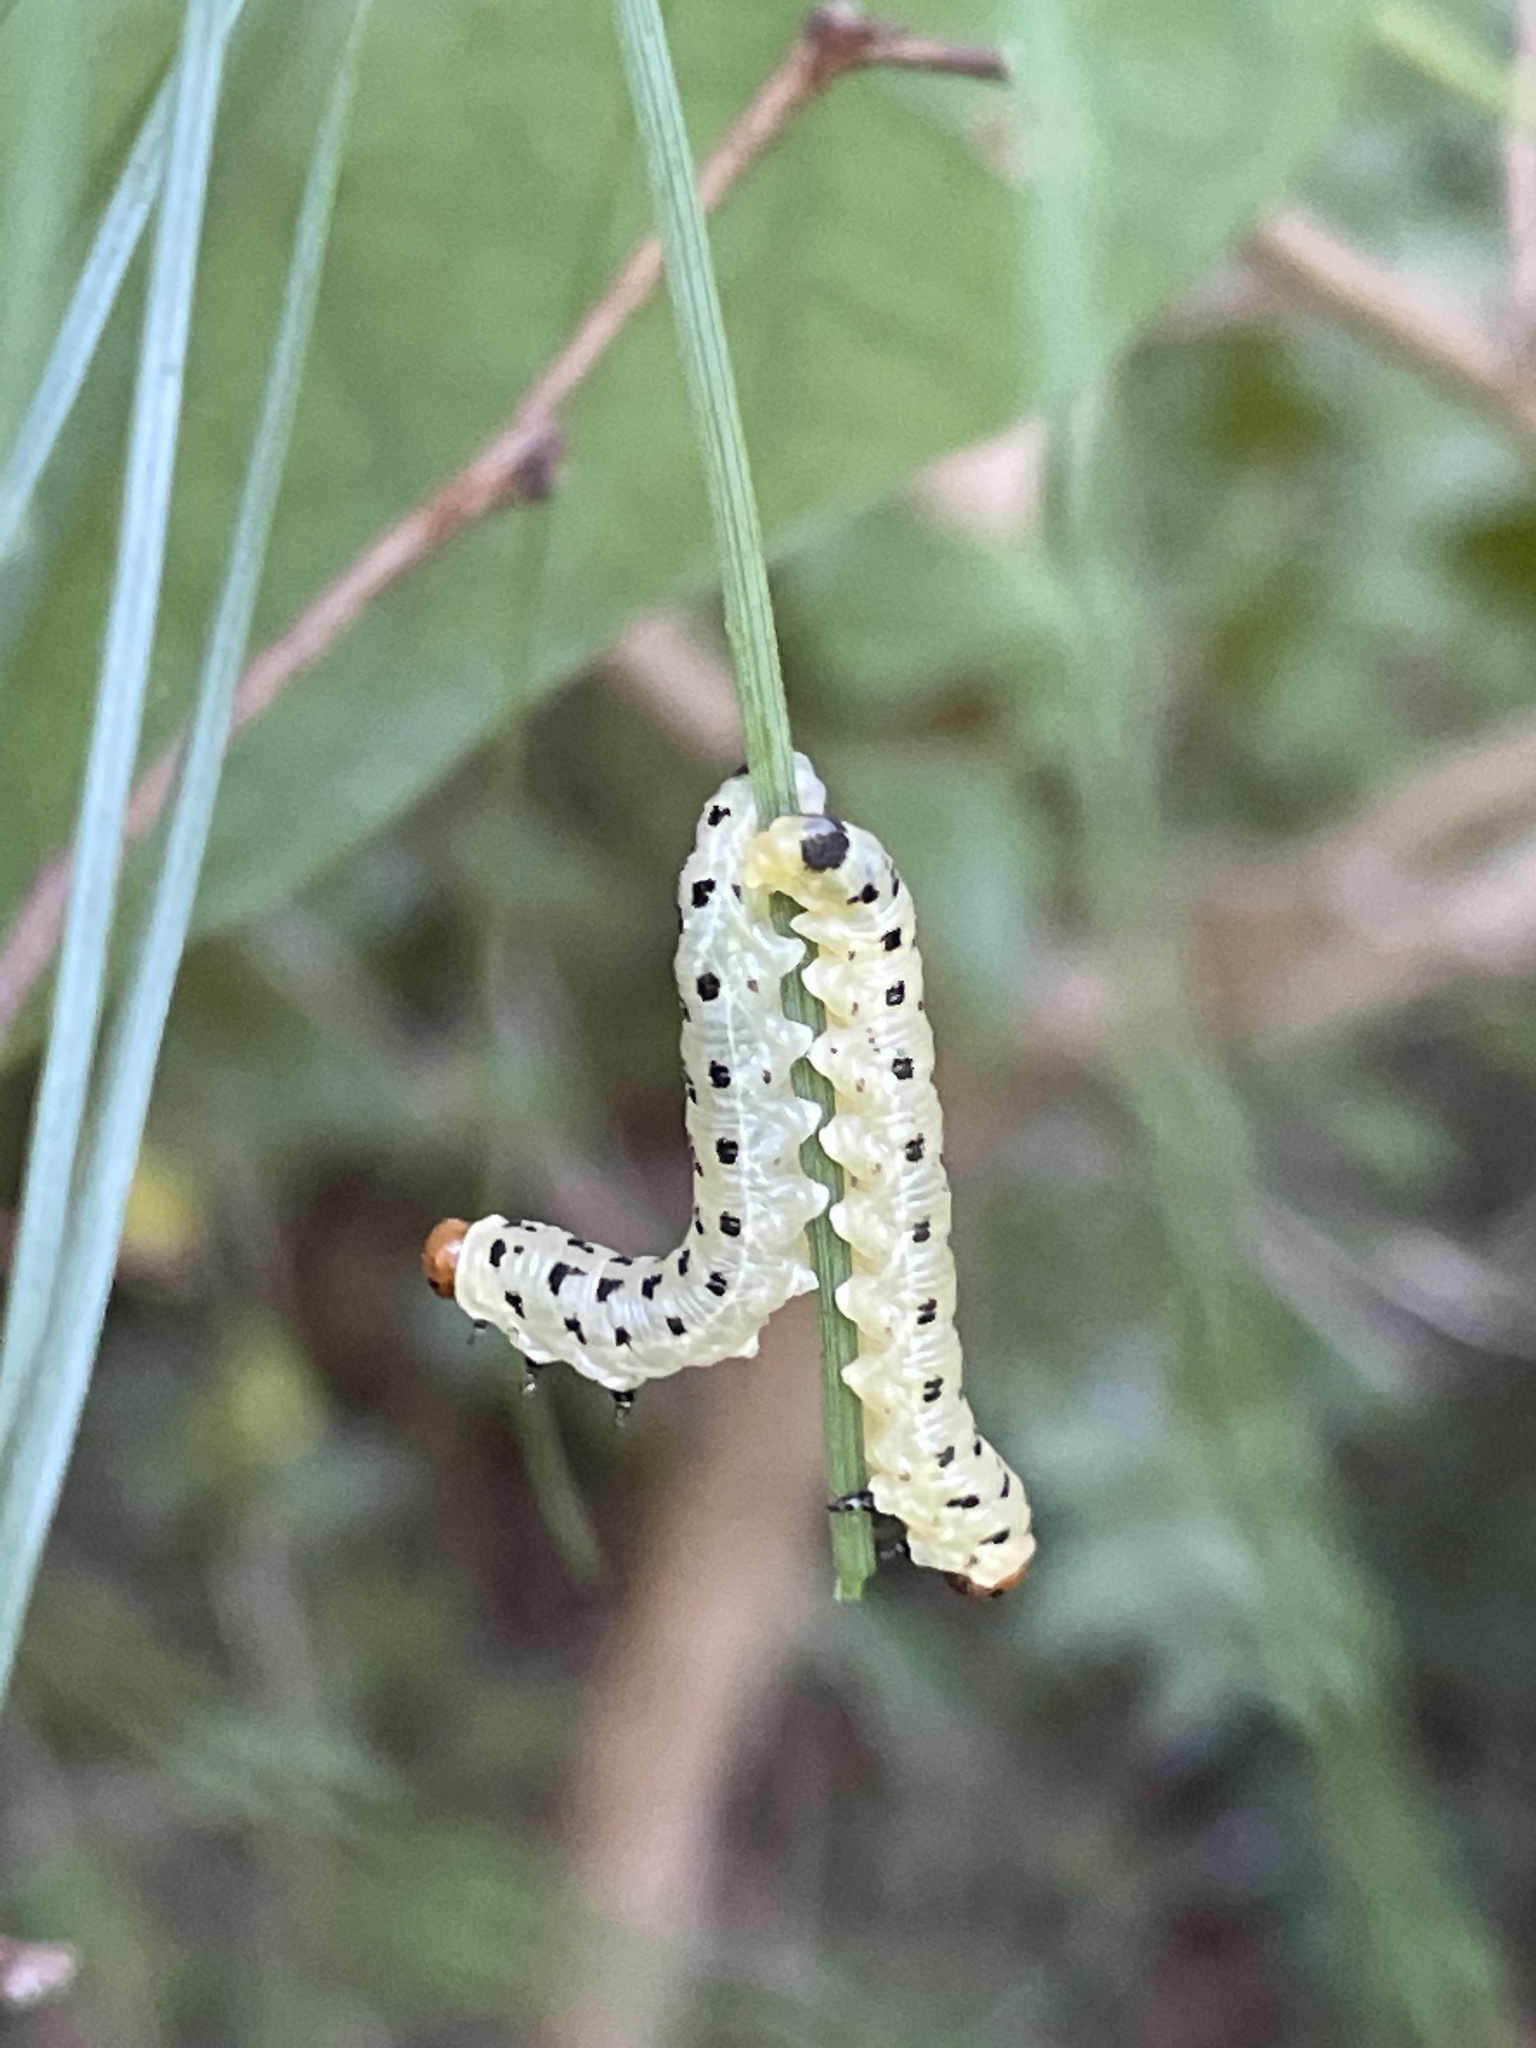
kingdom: Animalia
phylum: Arthropoda
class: Insecta
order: Hymenoptera
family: Diprionidae
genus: Neodiprion
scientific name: Neodiprion lecontei
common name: Redheaded pine sawfly
